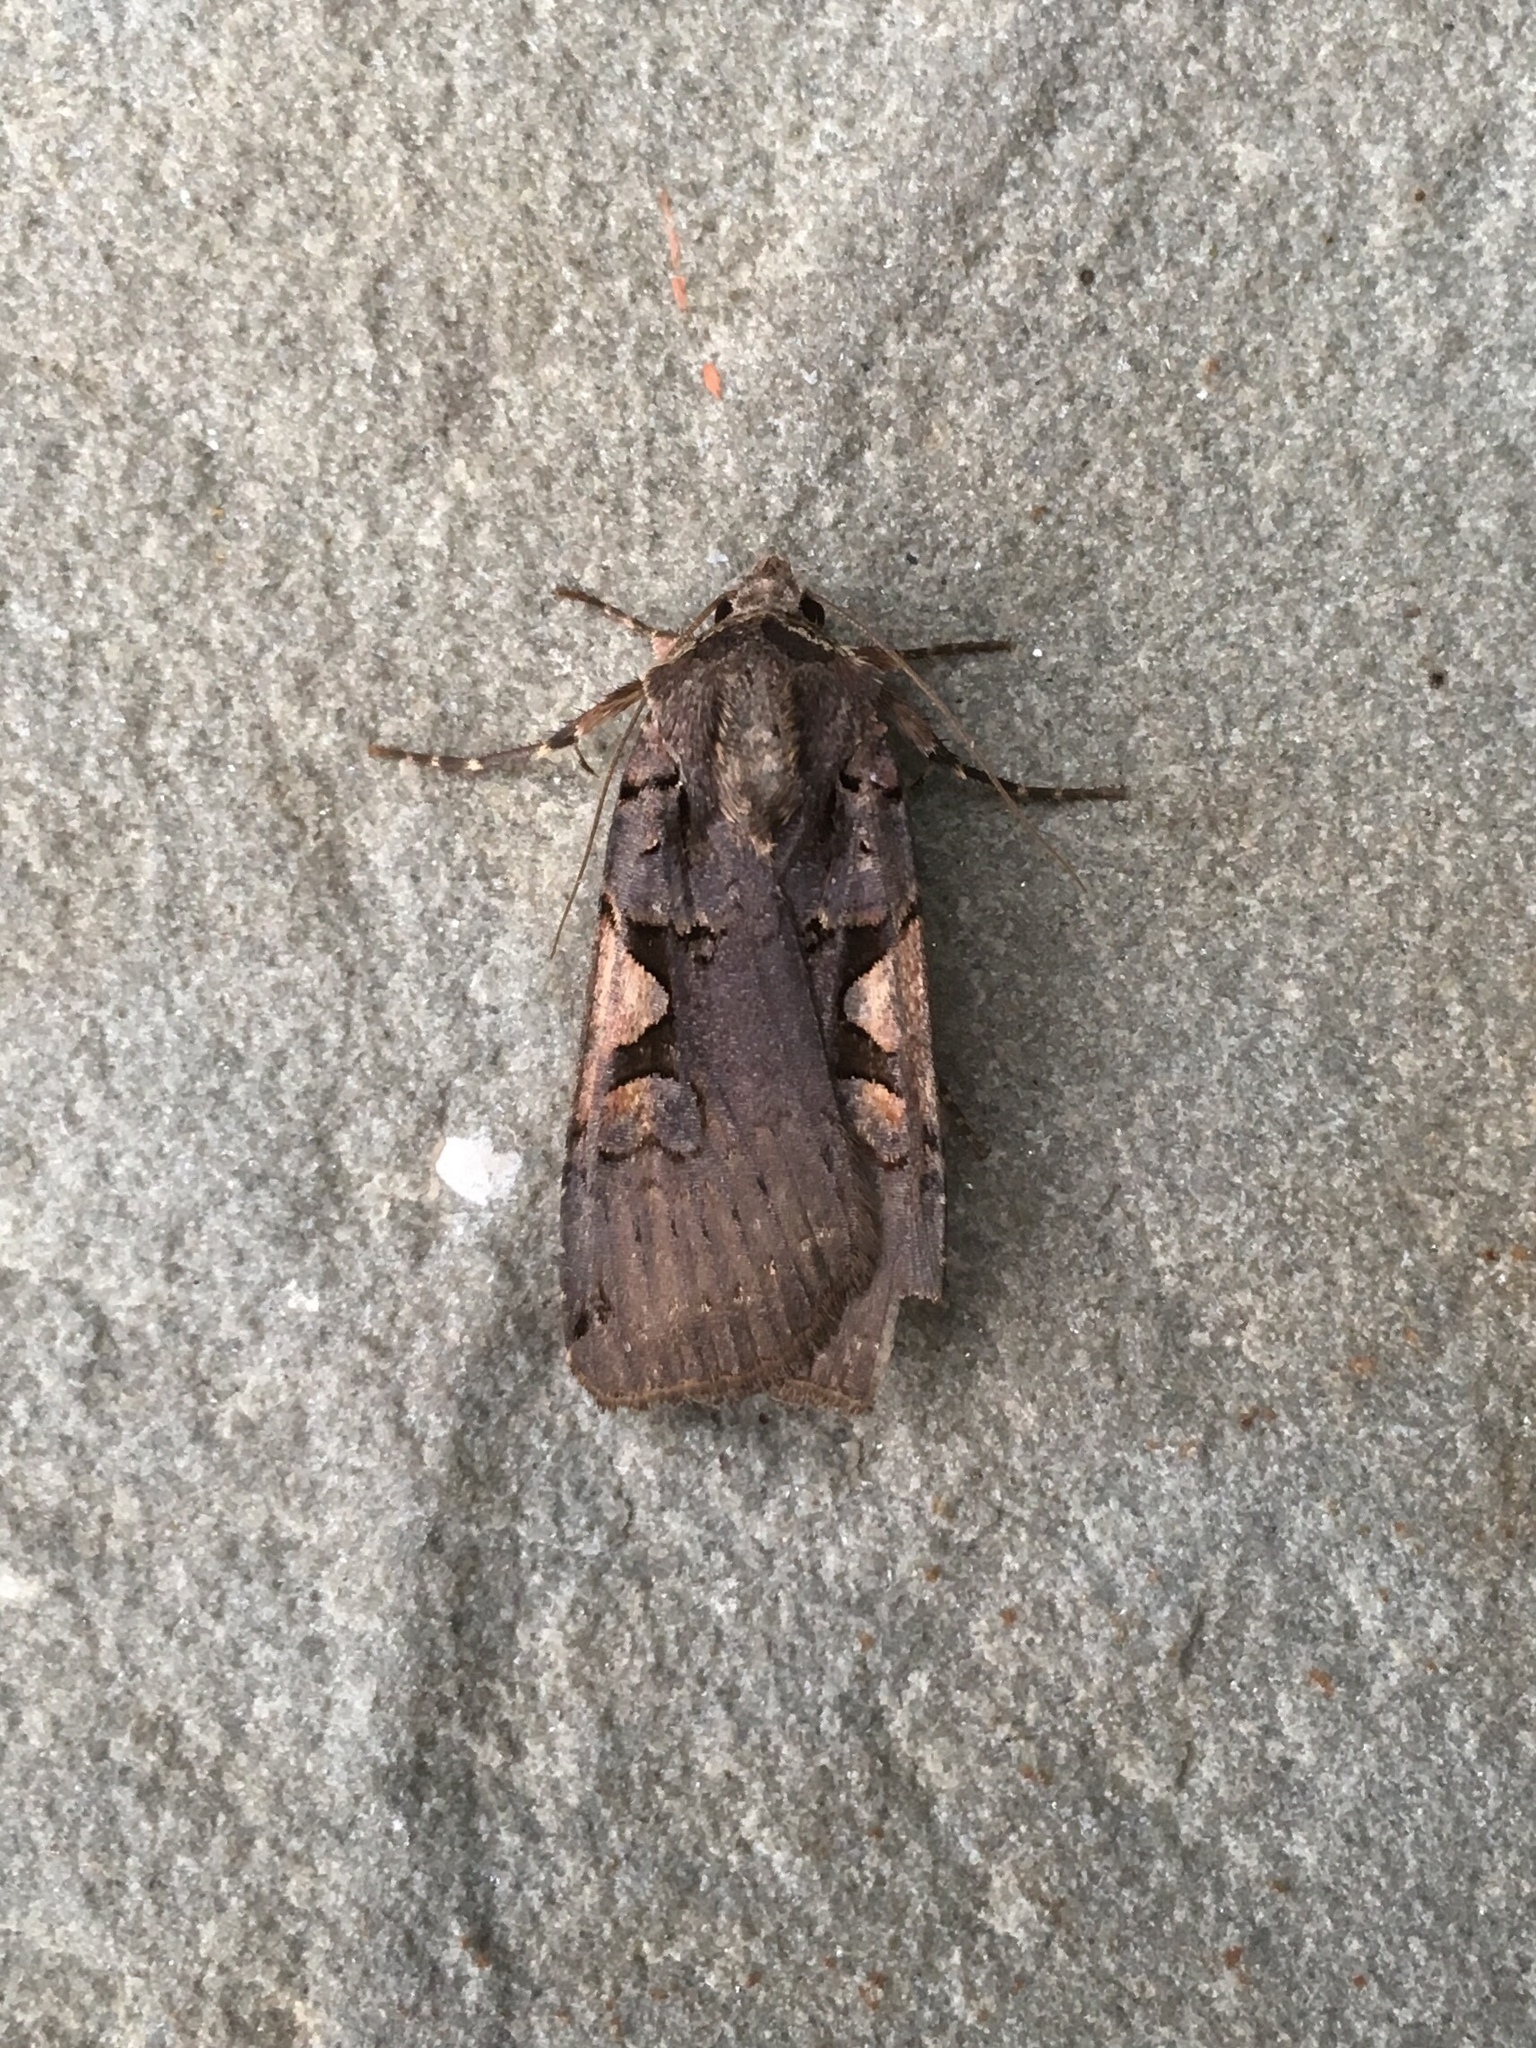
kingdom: Animalia
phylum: Arthropoda
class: Insecta
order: Lepidoptera
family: Noctuidae
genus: Xestia
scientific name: Xestia
